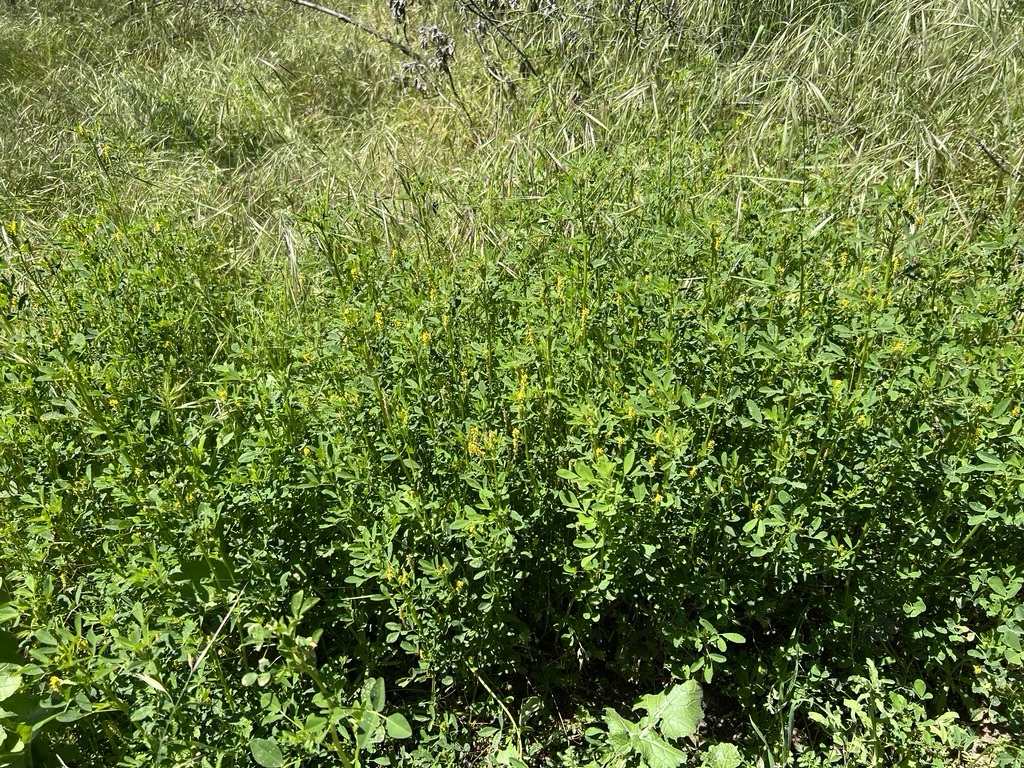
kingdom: Plantae
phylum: Tracheophyta
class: Magnoliopsida
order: Fabales
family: Fabaceae
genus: Melilotus
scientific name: Melilotus indicus
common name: Small melilot
